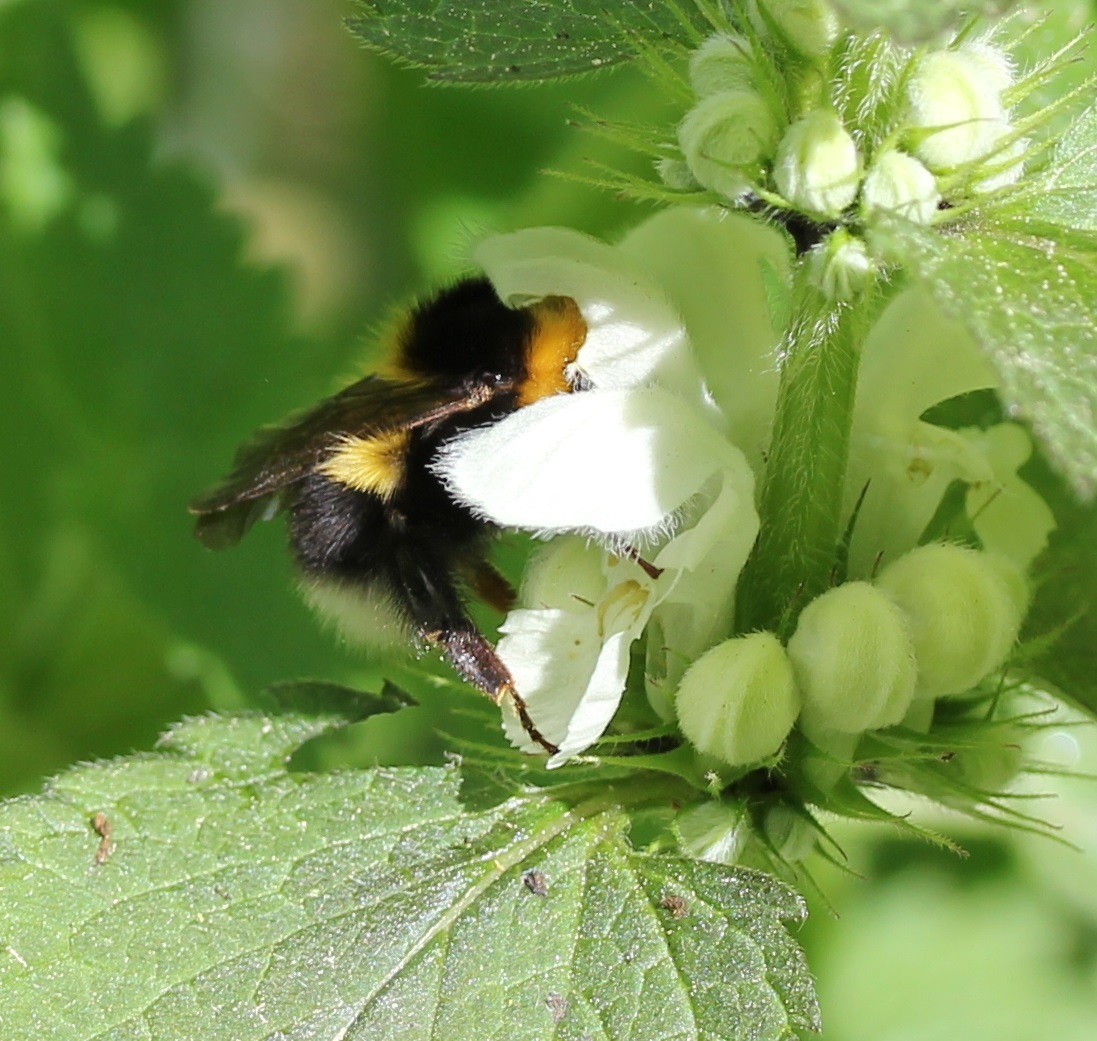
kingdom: Animalia
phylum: Arthropoda
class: Insecta
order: Hymenoptera
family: Apidae
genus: Bombus
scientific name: Bombus hortorum
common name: Garden bumblebee
